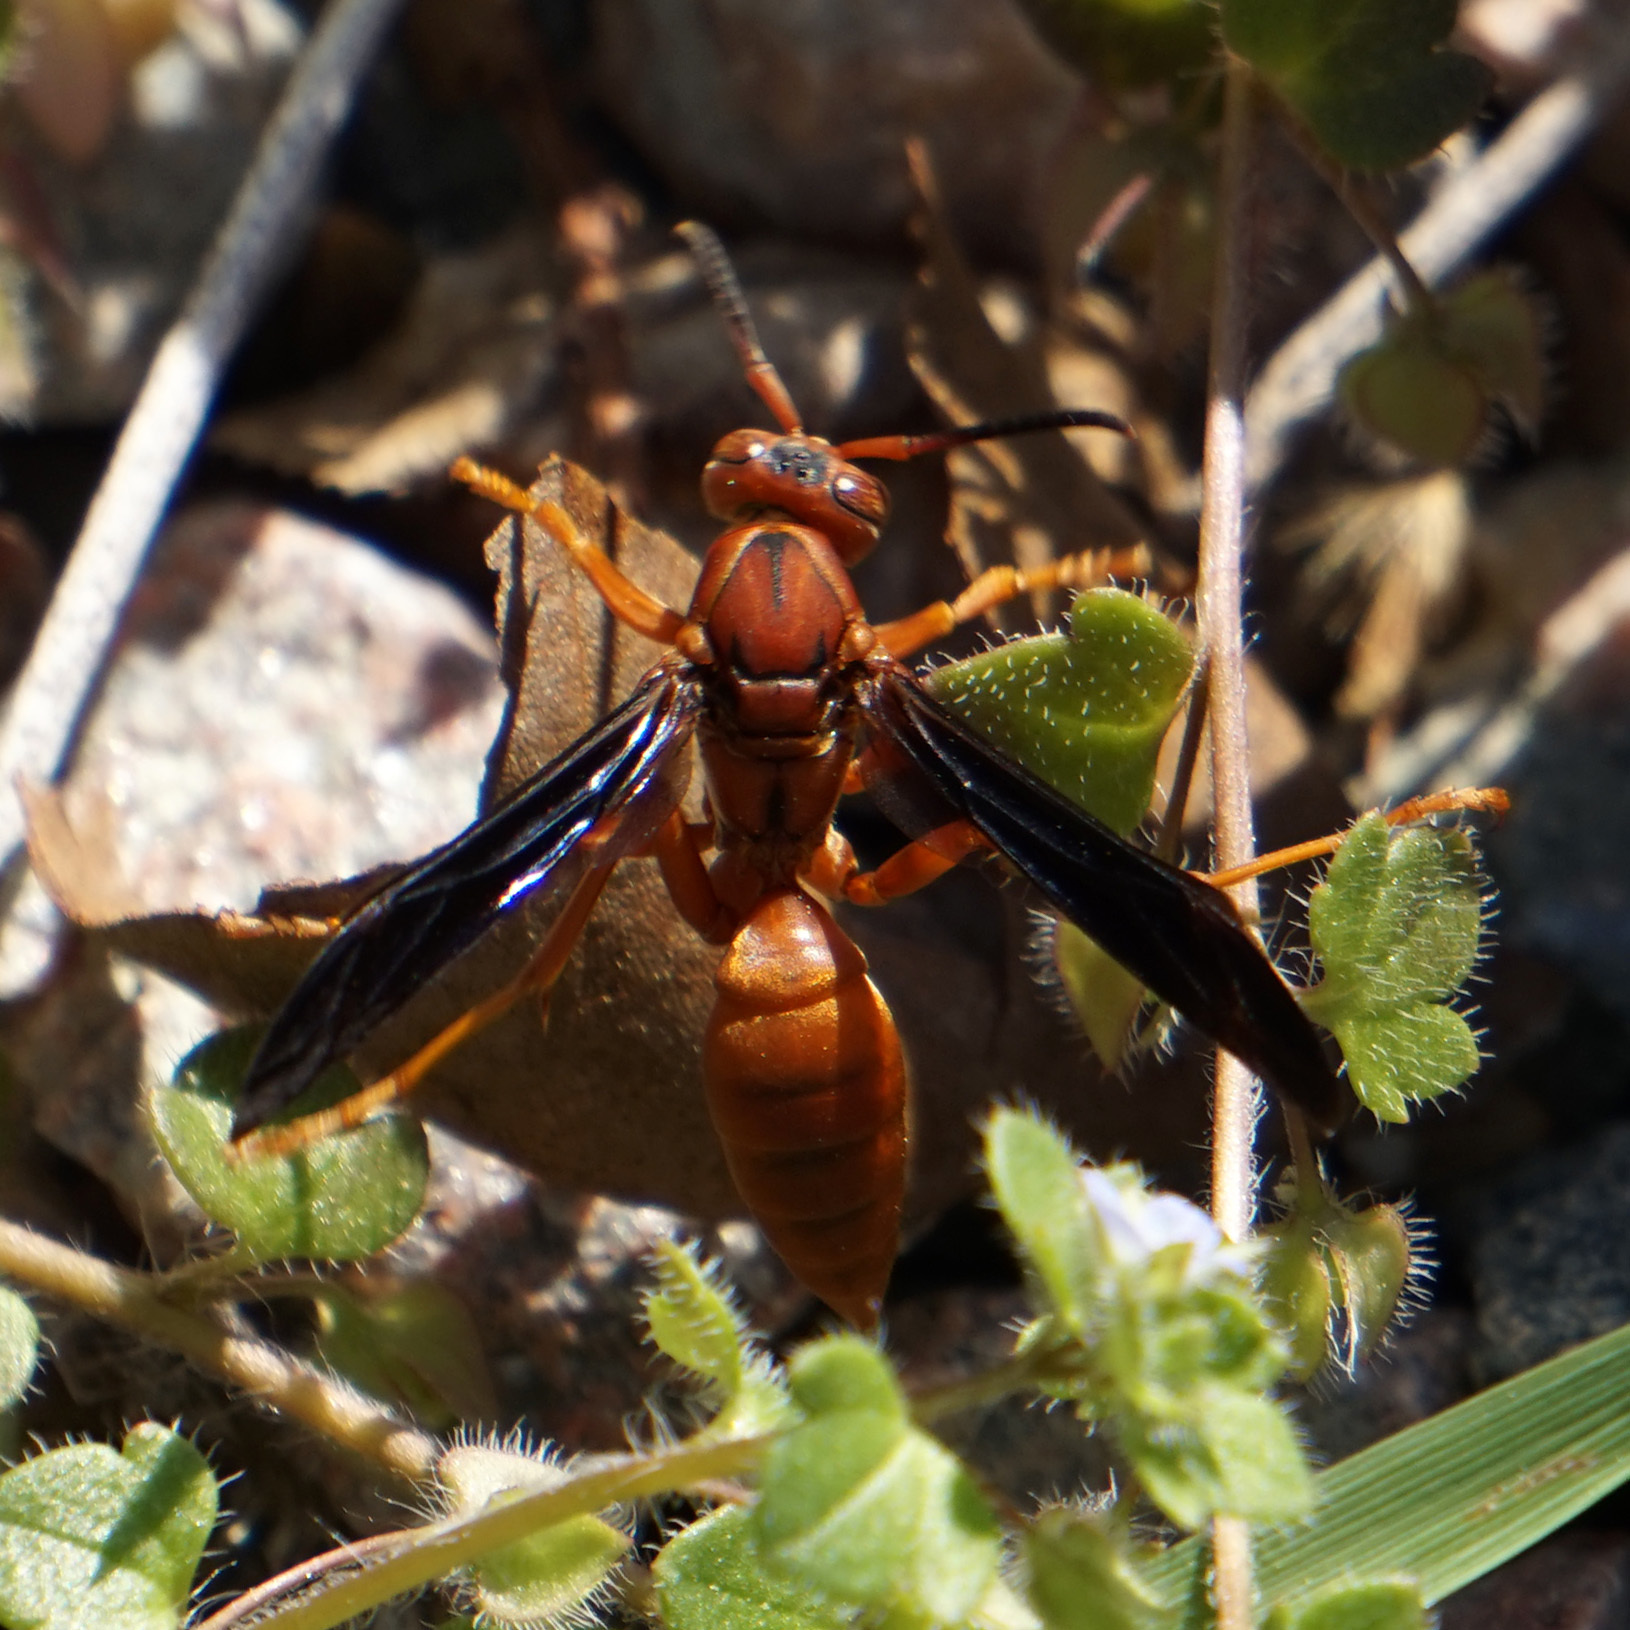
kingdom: Animalia
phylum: Arthropoda
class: Insecta
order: Hymenoptera
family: Vespidae
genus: Fuscopolistes
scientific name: Fuscopolistes
